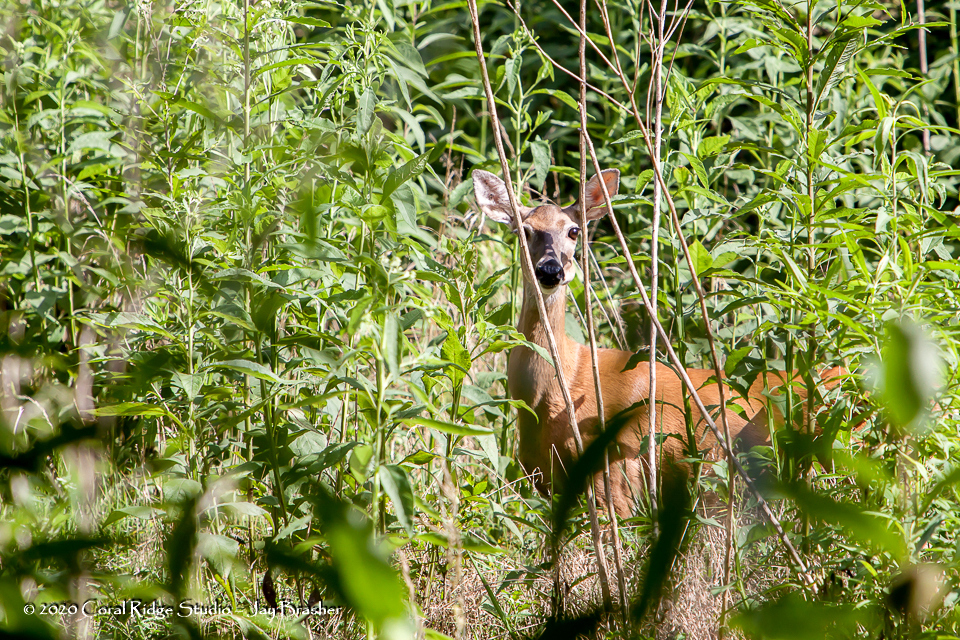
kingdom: Animalia
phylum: Chordata
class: Mammalia
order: Artiodactyla
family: Cervidae
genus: Odocoileus
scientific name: Odocoileus virginianus
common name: White-tailed deer
